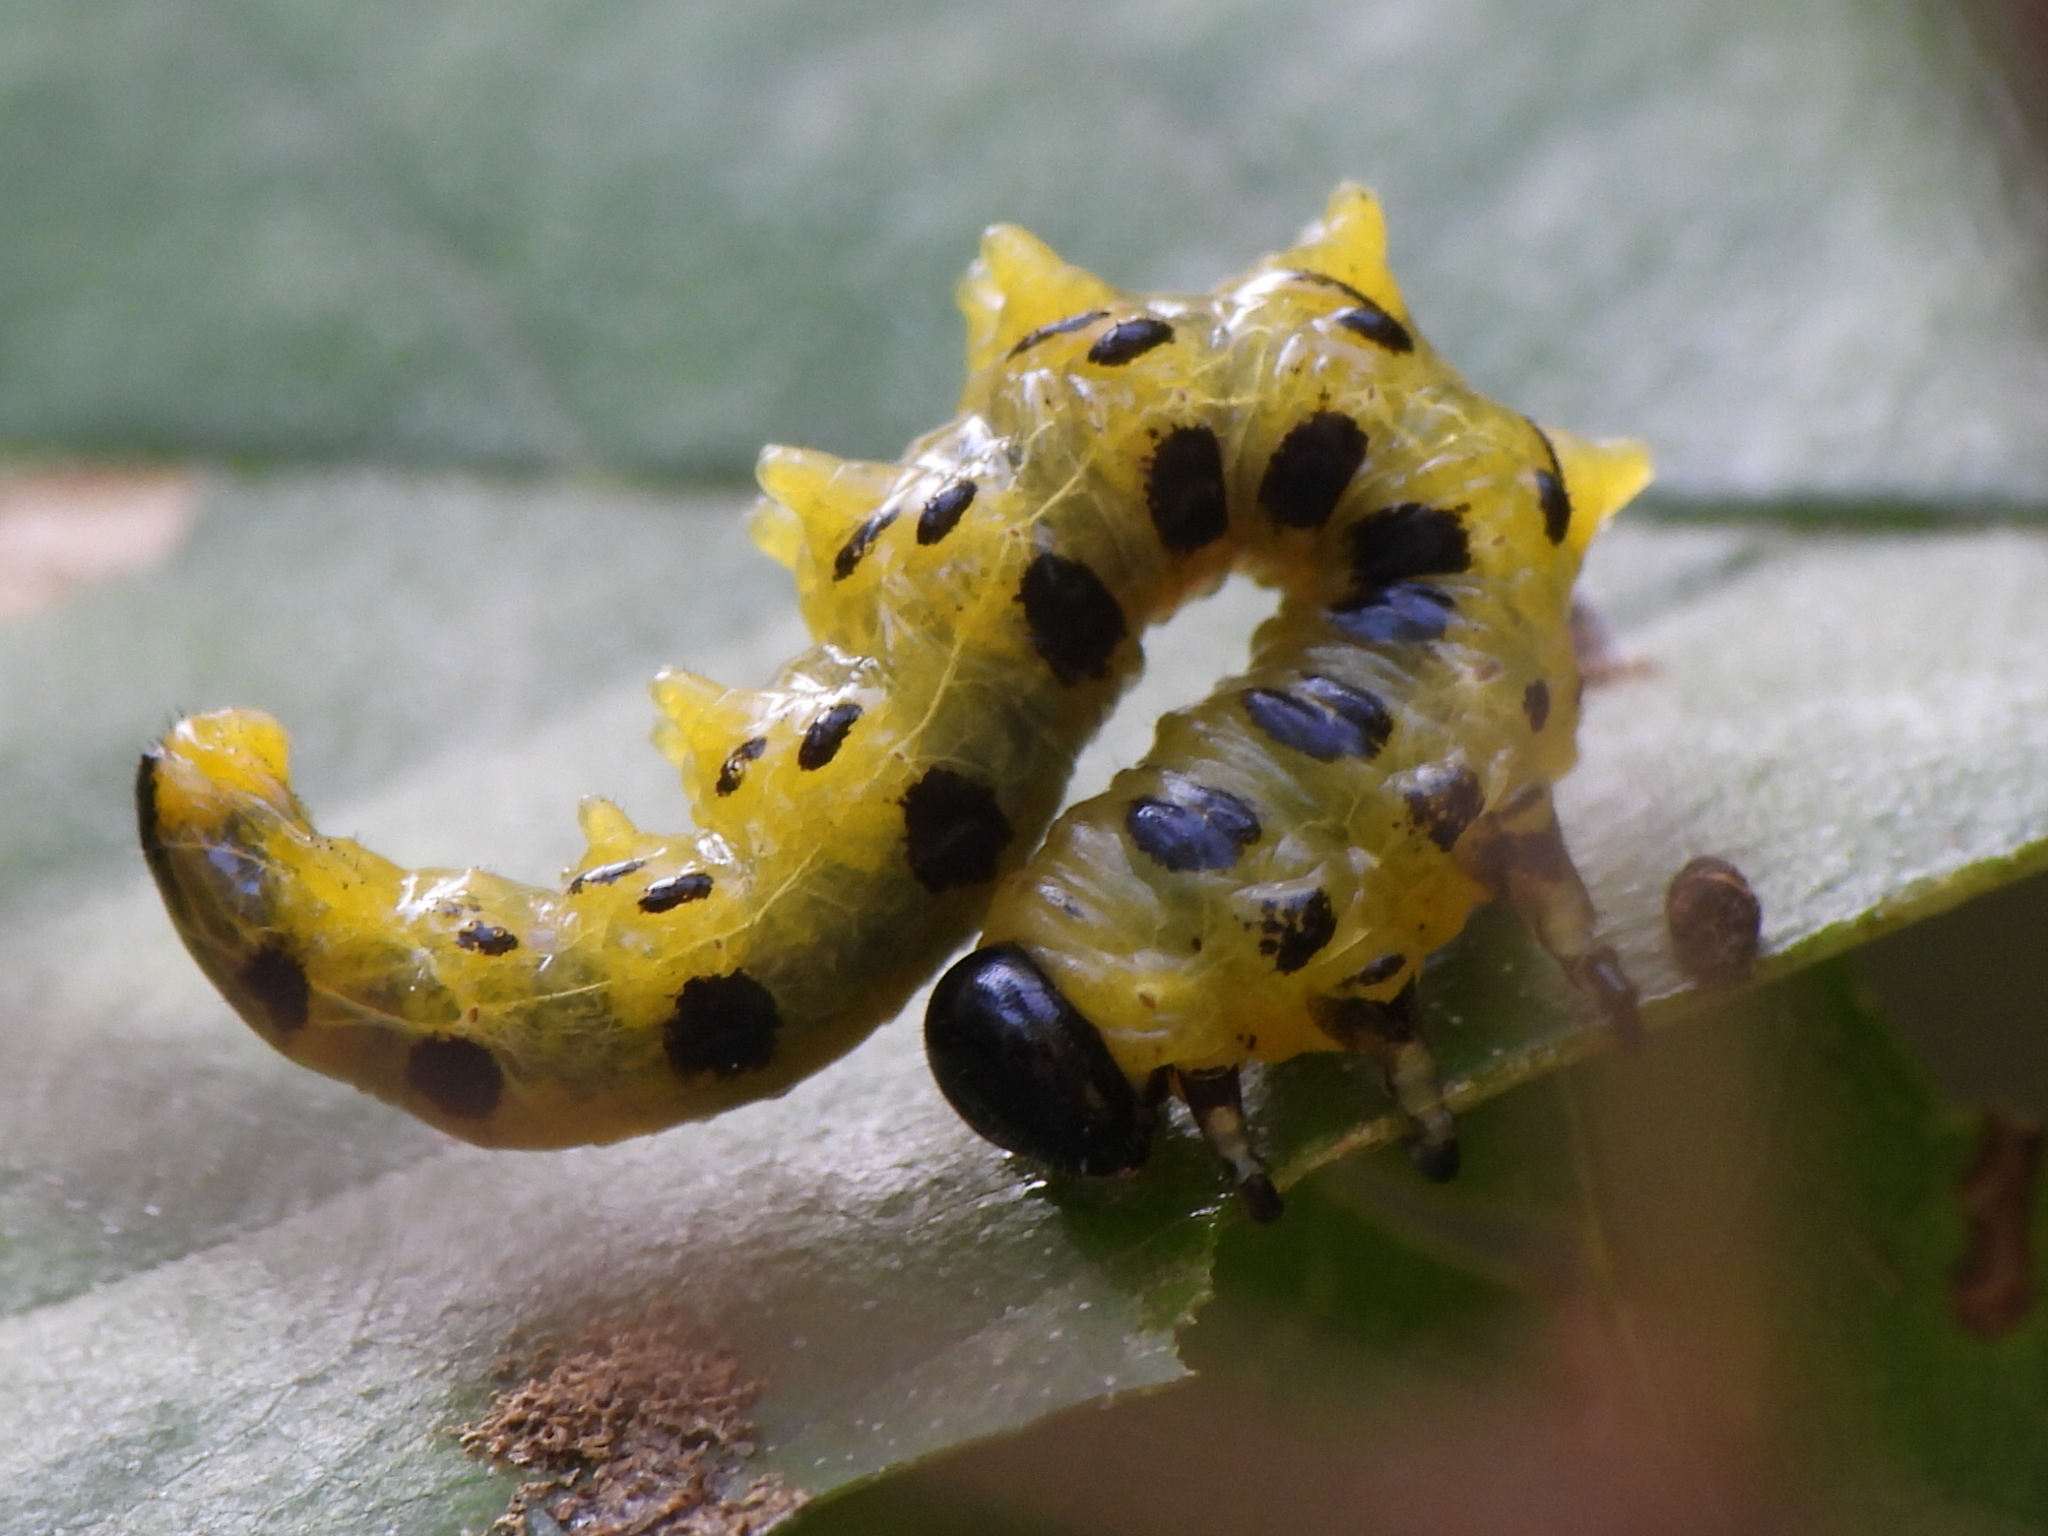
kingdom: Animalia
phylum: Arthropoda
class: Insecta
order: Hymenoptera
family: Tenthredinidae
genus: Nematus
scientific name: Nematus
